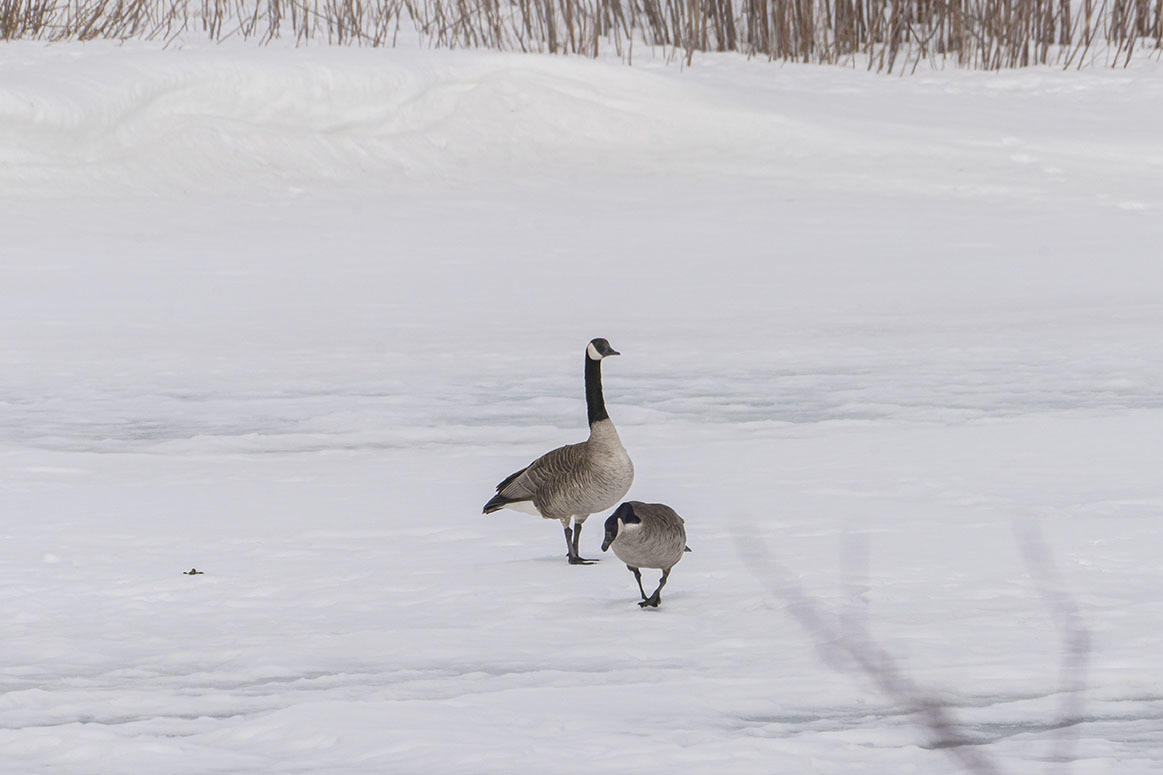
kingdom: Animalia
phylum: Chordata
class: Aves
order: Anseriformes
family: Anatidae
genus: Branta
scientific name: Branta canadensis
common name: Canada goose
